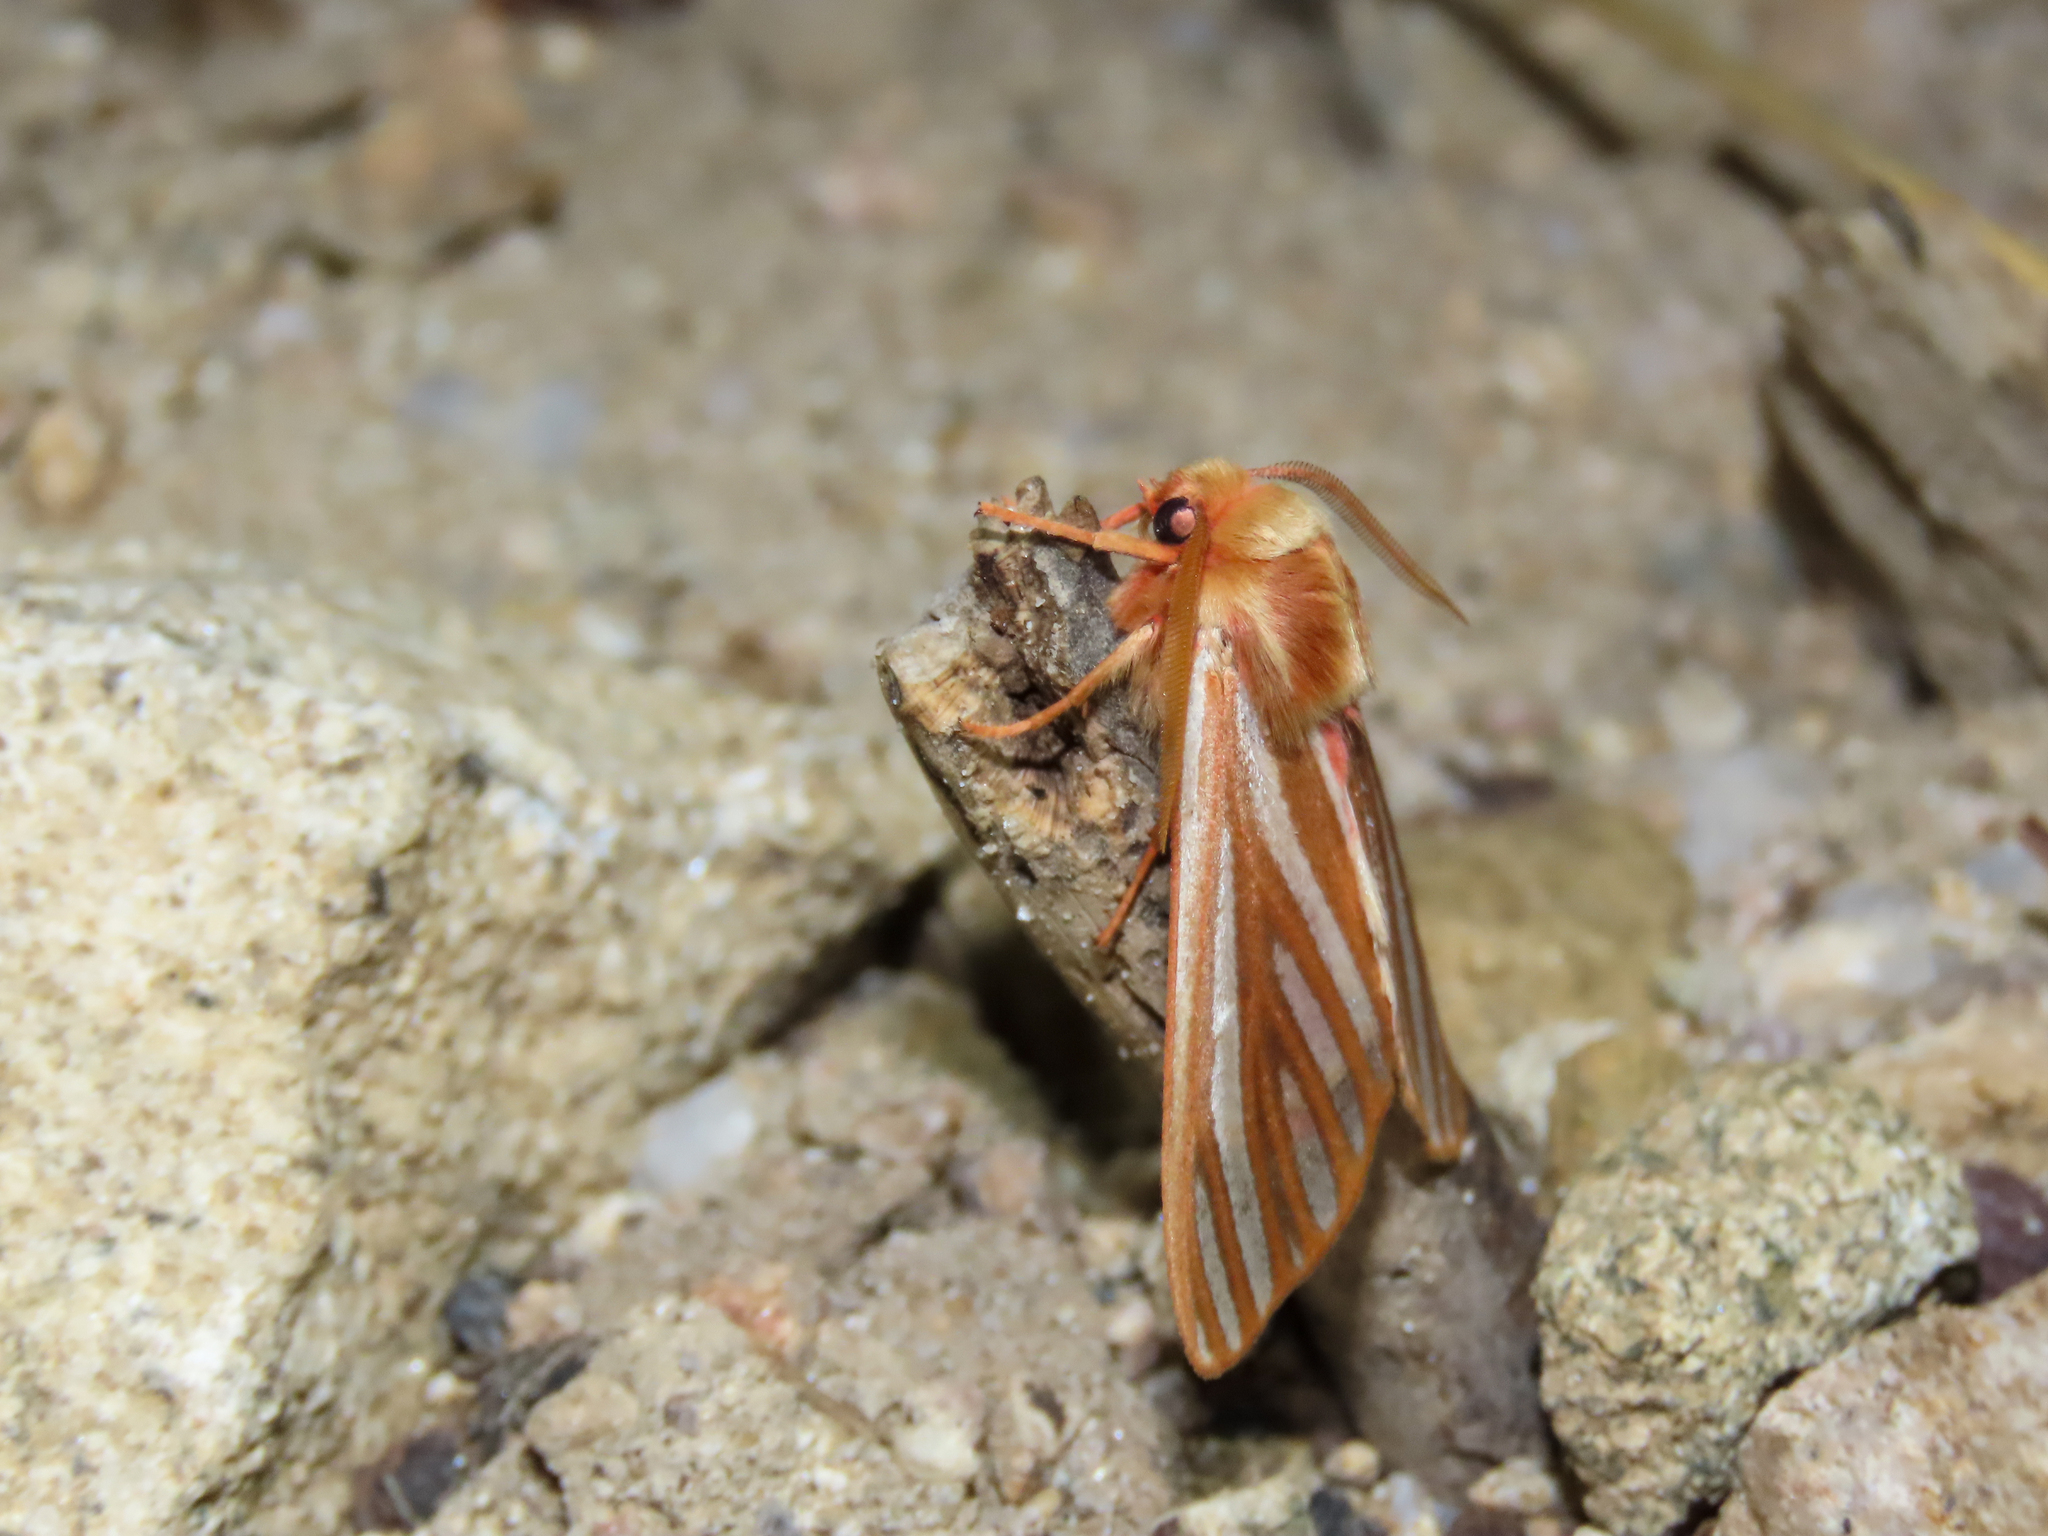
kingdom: Animalia
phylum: Arthropoda
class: Insecta
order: Lepidoptera
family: Erebidae
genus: Hemihyalea
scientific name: Hemihyalea ambigua
